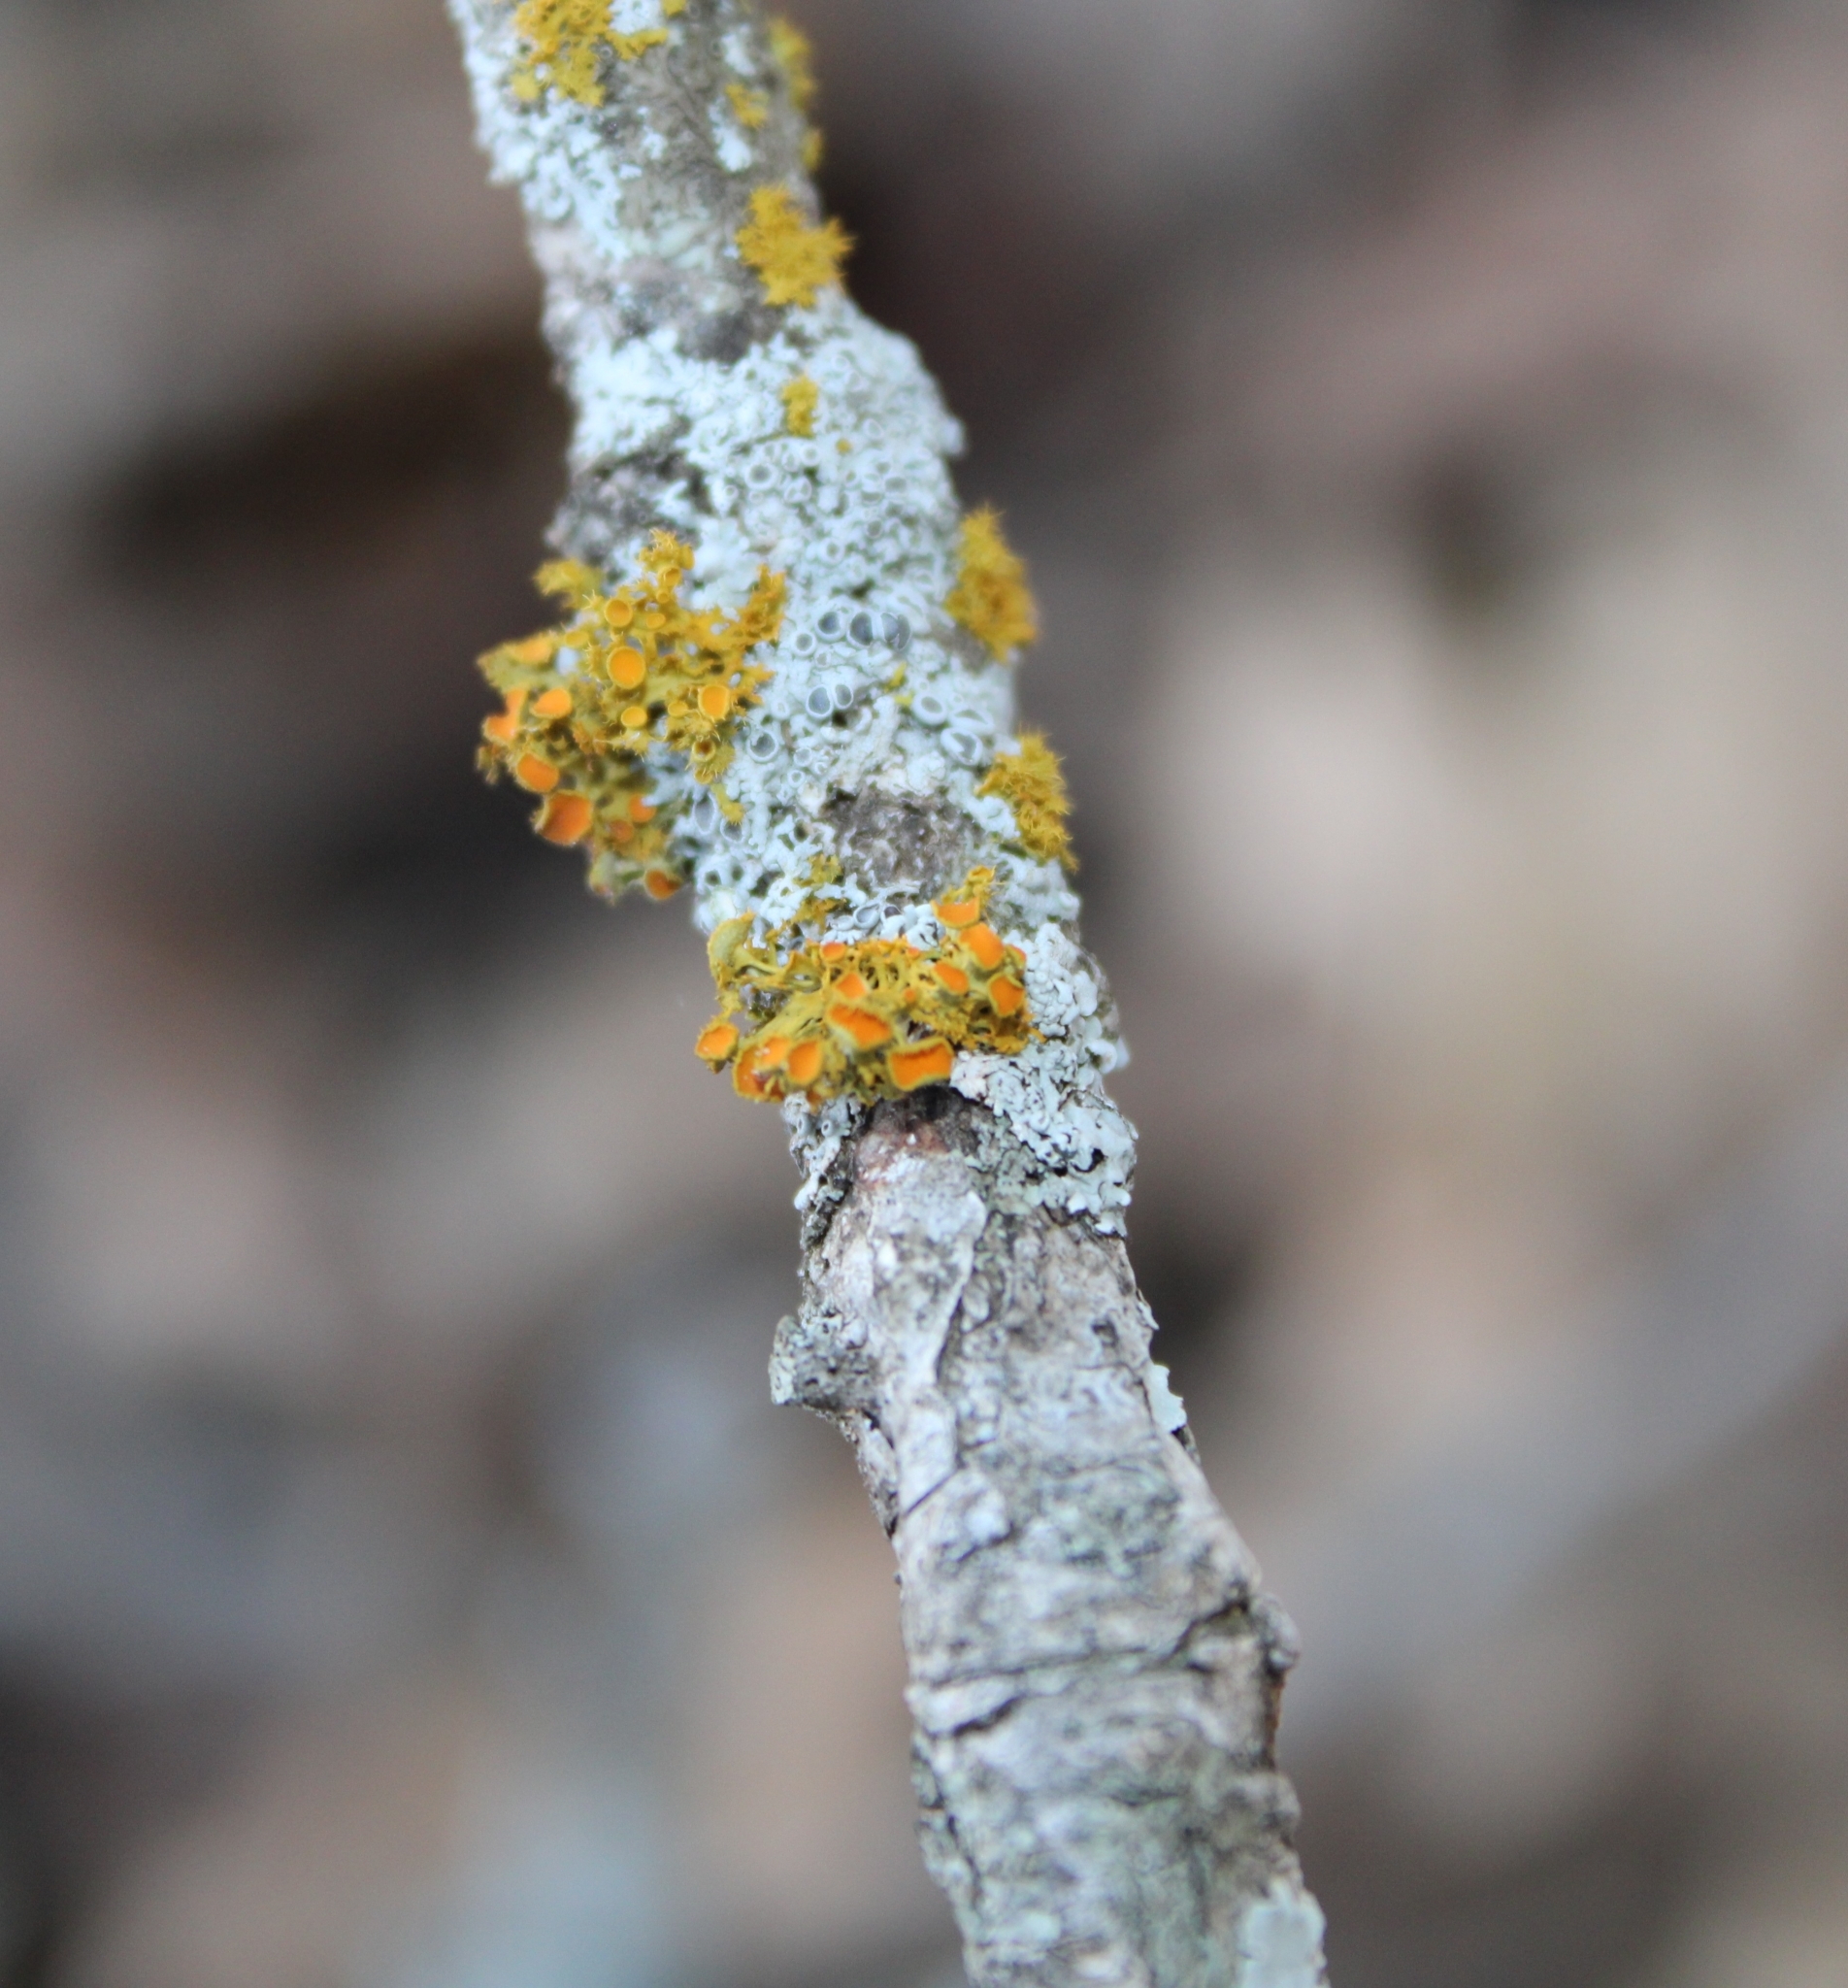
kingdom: Fungi
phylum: Ascomycota
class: Lecanoromycetes
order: Teloschistales
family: Teloschistaceae
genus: Niorma
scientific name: Niorma chrysophthalma
